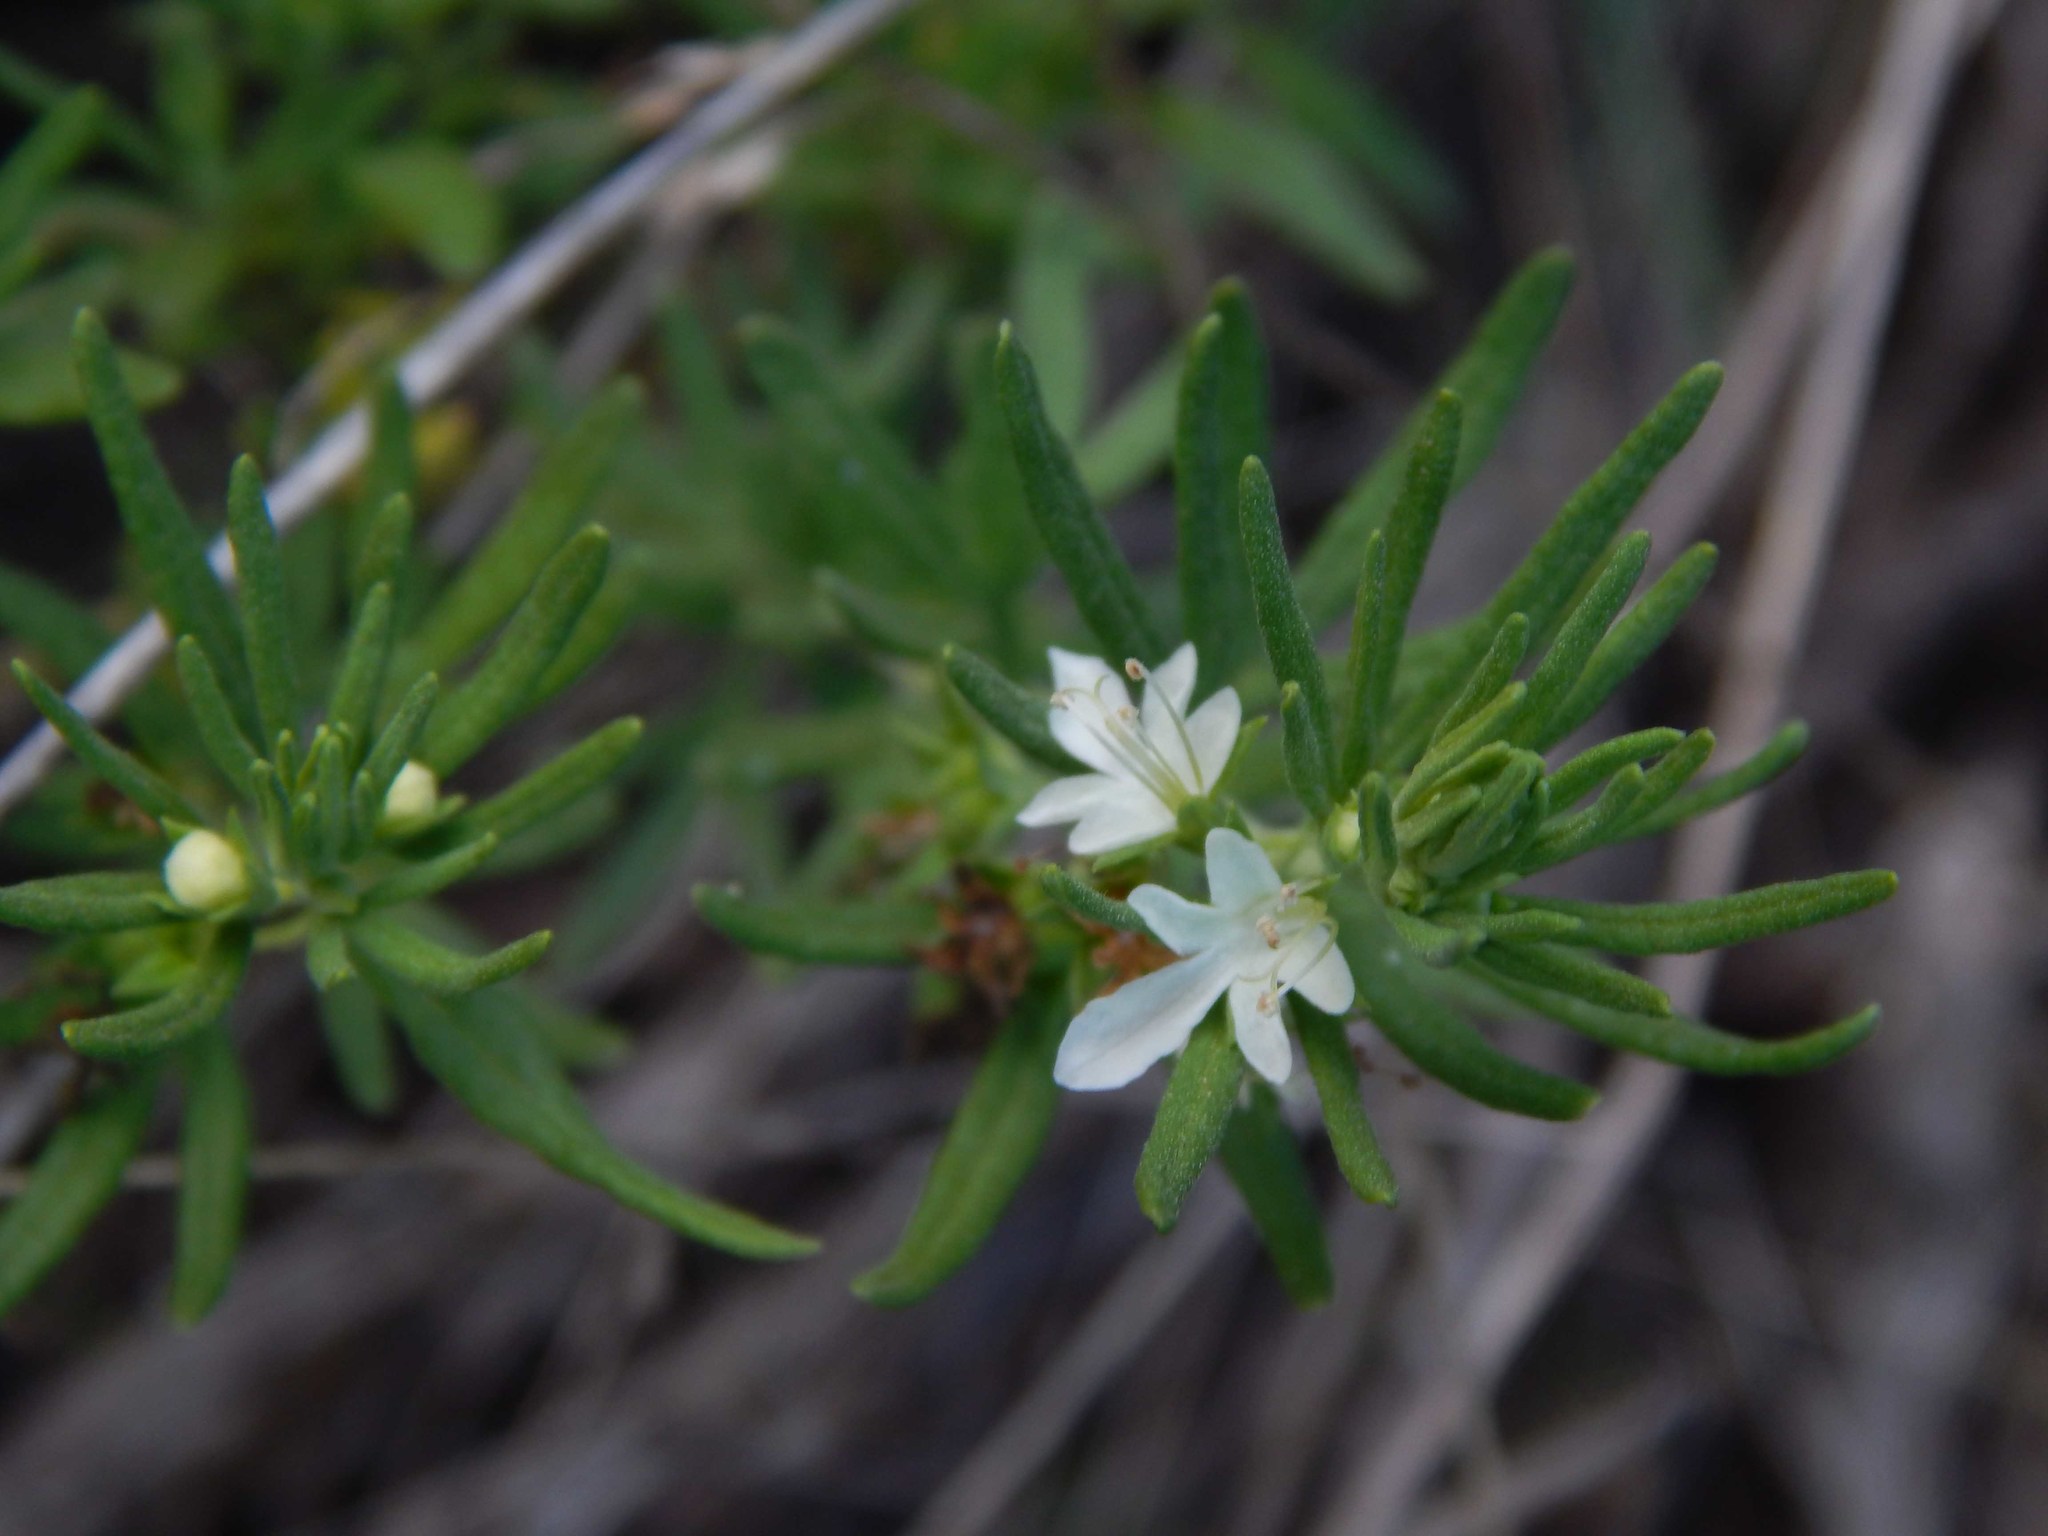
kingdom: Plantae
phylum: Tracheophyta
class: Magnoliopsida
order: Lamiales
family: Lamiaceae
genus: Teucrium
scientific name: Teucrium africanum
